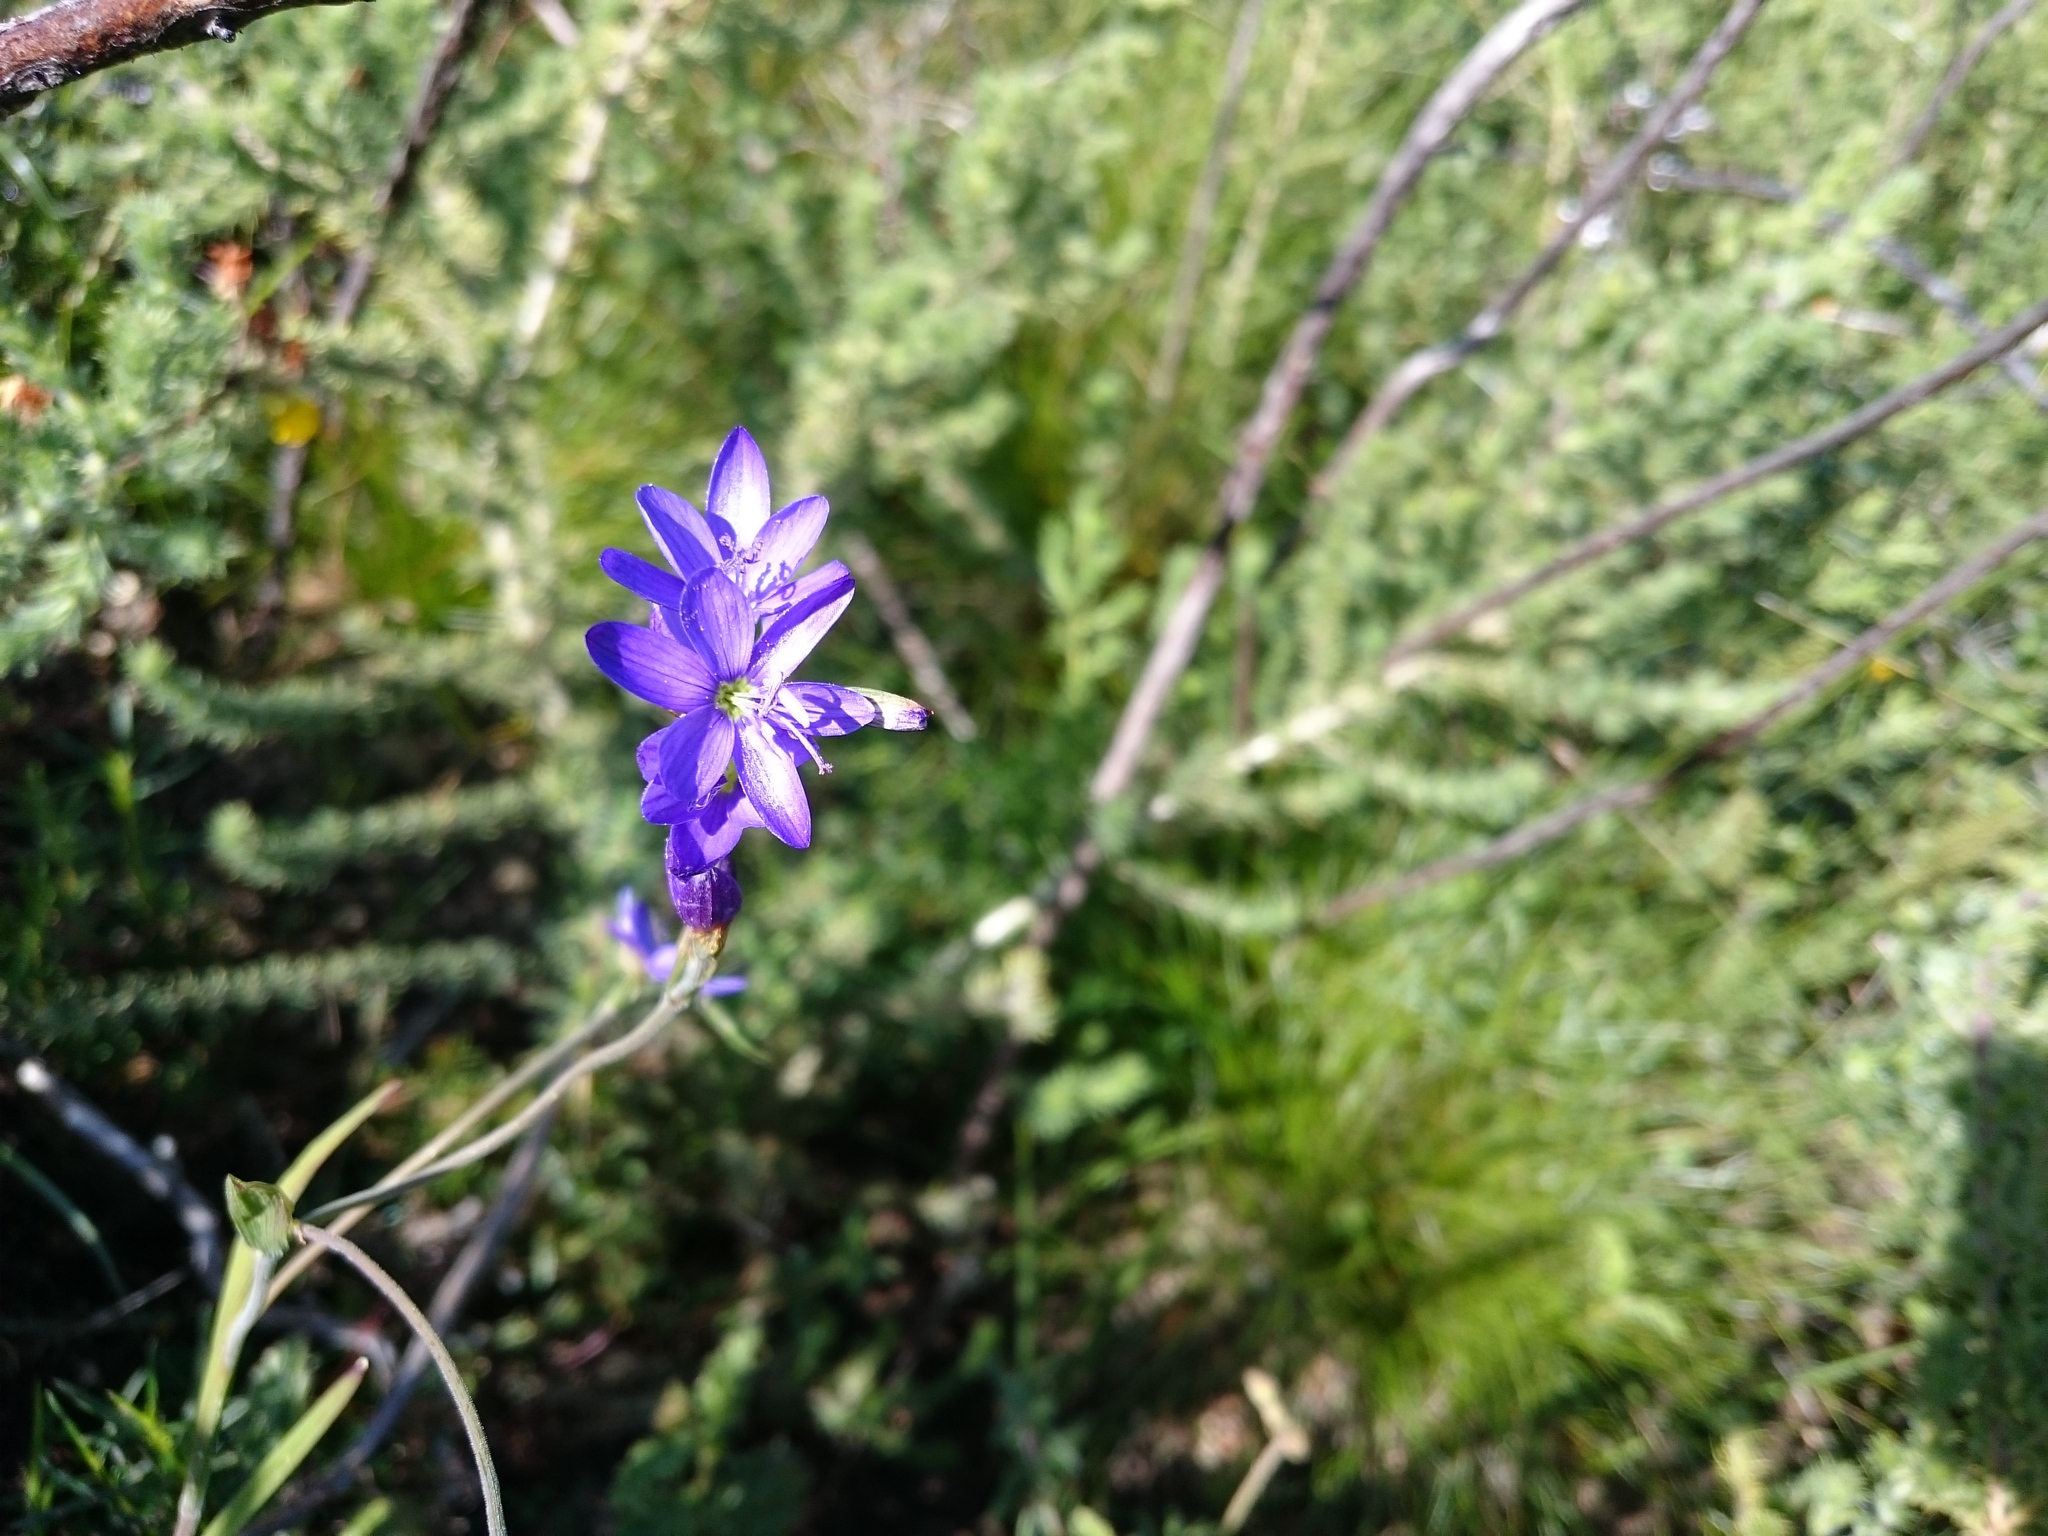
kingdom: Plantae
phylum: Tracheophyta
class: Liliopsida
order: Asparagales
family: Iridaceae
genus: Geissorhiza
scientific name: Geissorhiza aspera
